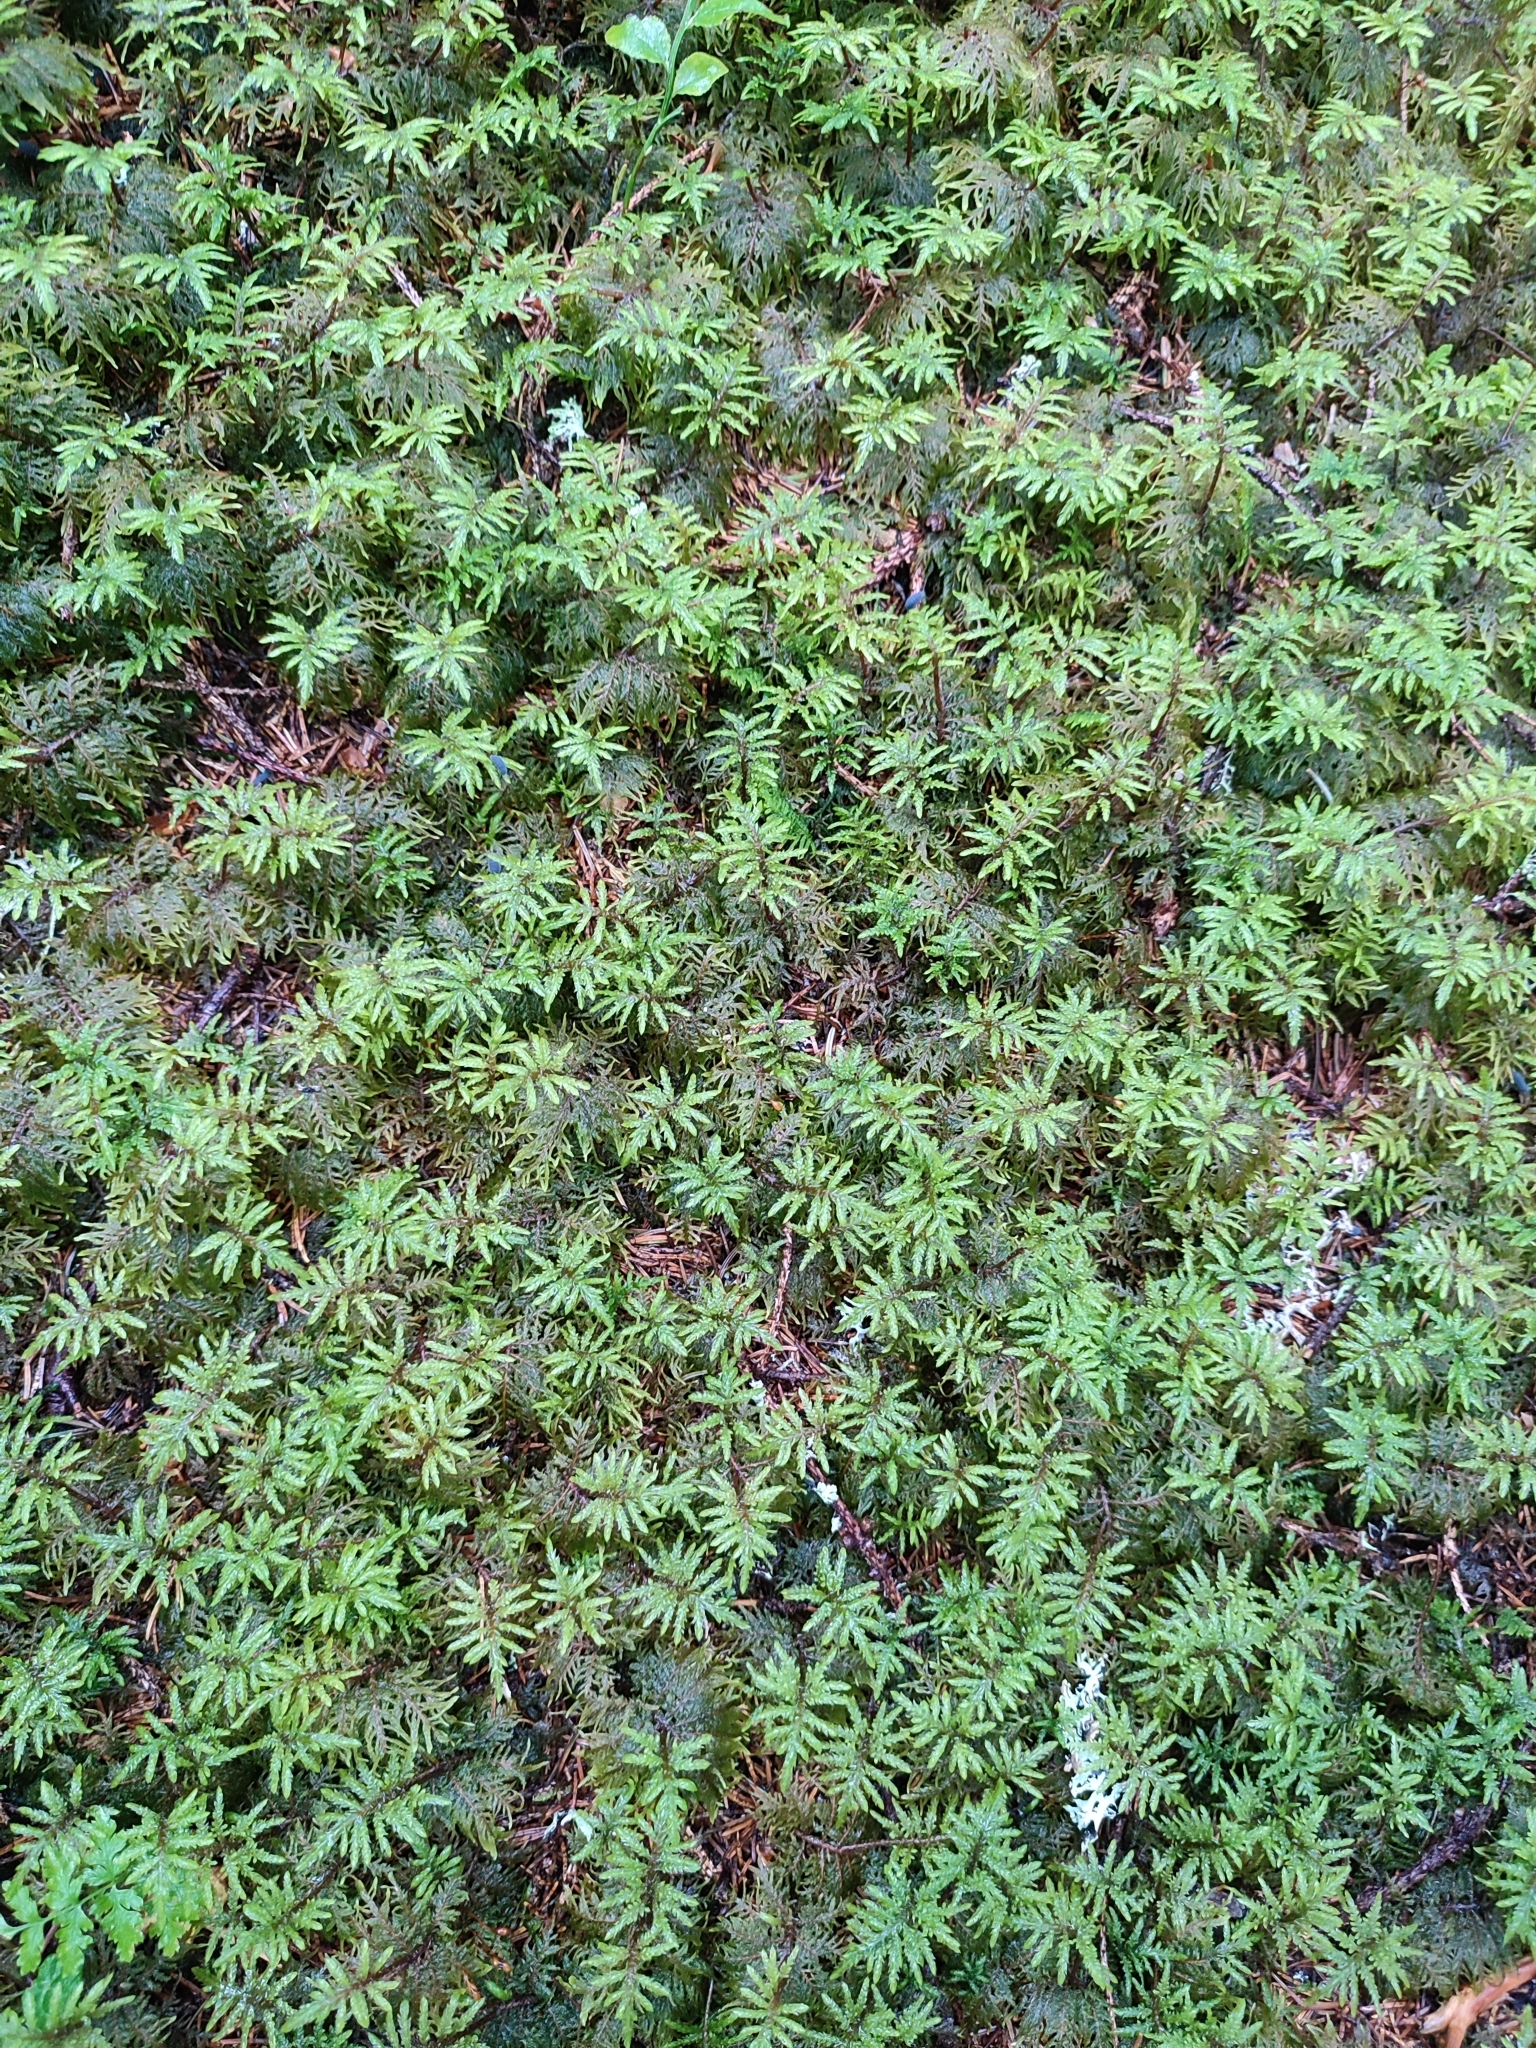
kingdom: Plantae
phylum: Bryophyta
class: Bryopsida
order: Hypnales
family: Hylocomiaceae
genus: Hylocomium
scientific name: Hylocomium splendens
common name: Stairstep moss
